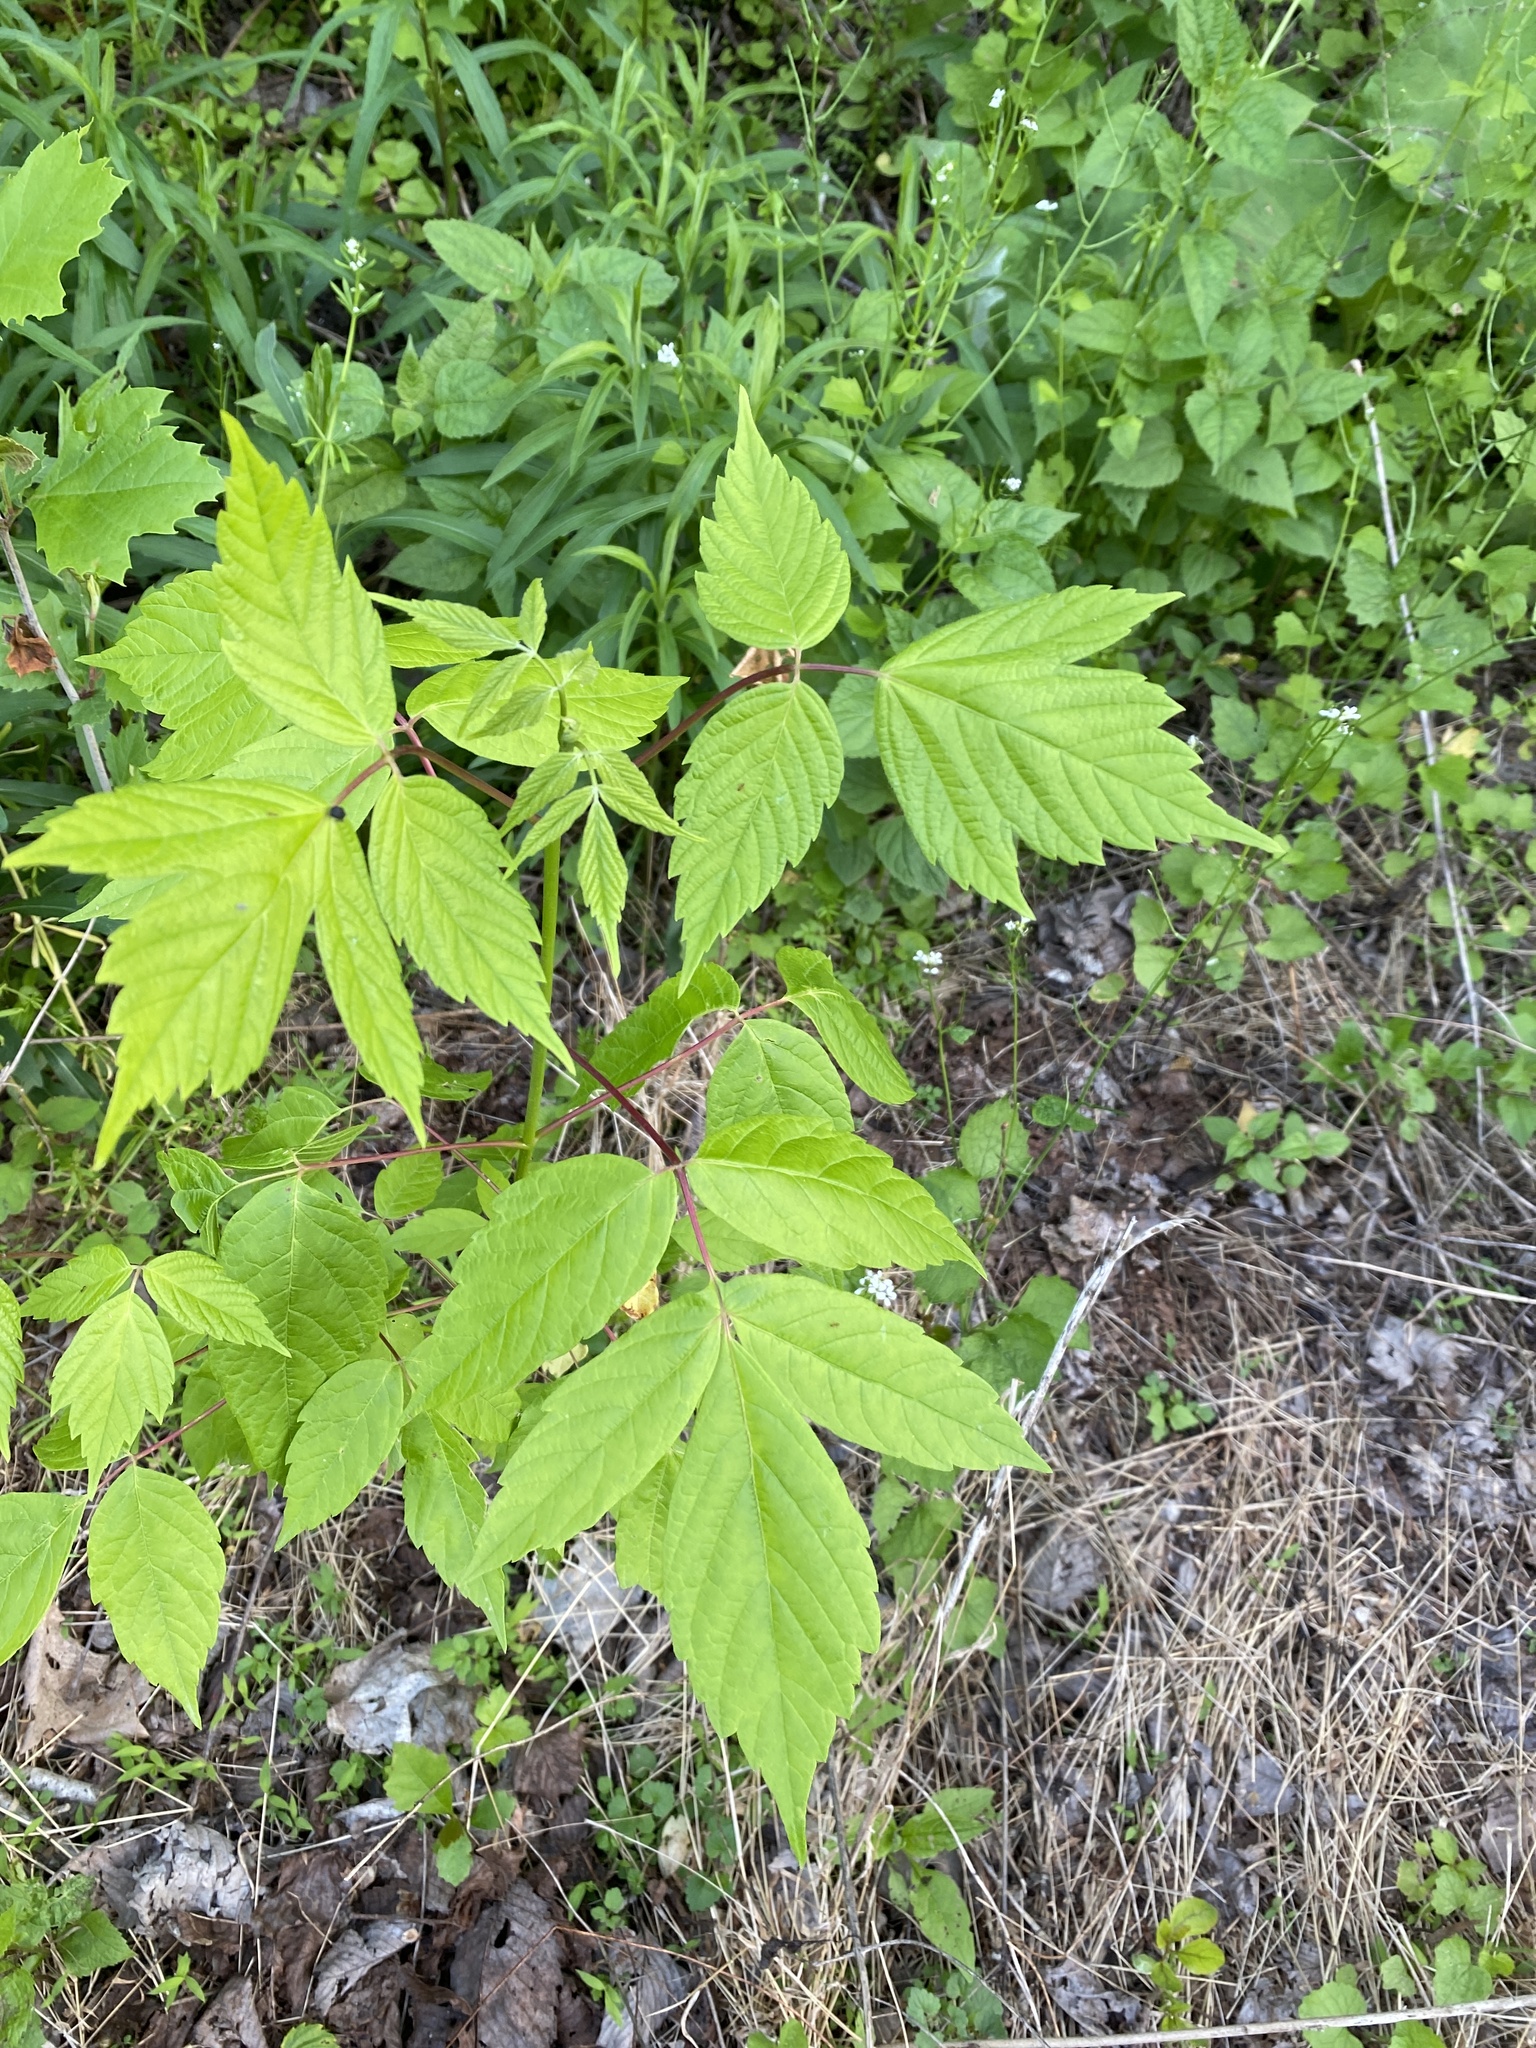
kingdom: Plantae
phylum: Tracheophyta
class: Magnoliopsida
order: Sapindales
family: Sapindaceae
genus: Acer
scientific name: Acer negundo
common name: Ashleaf maple
